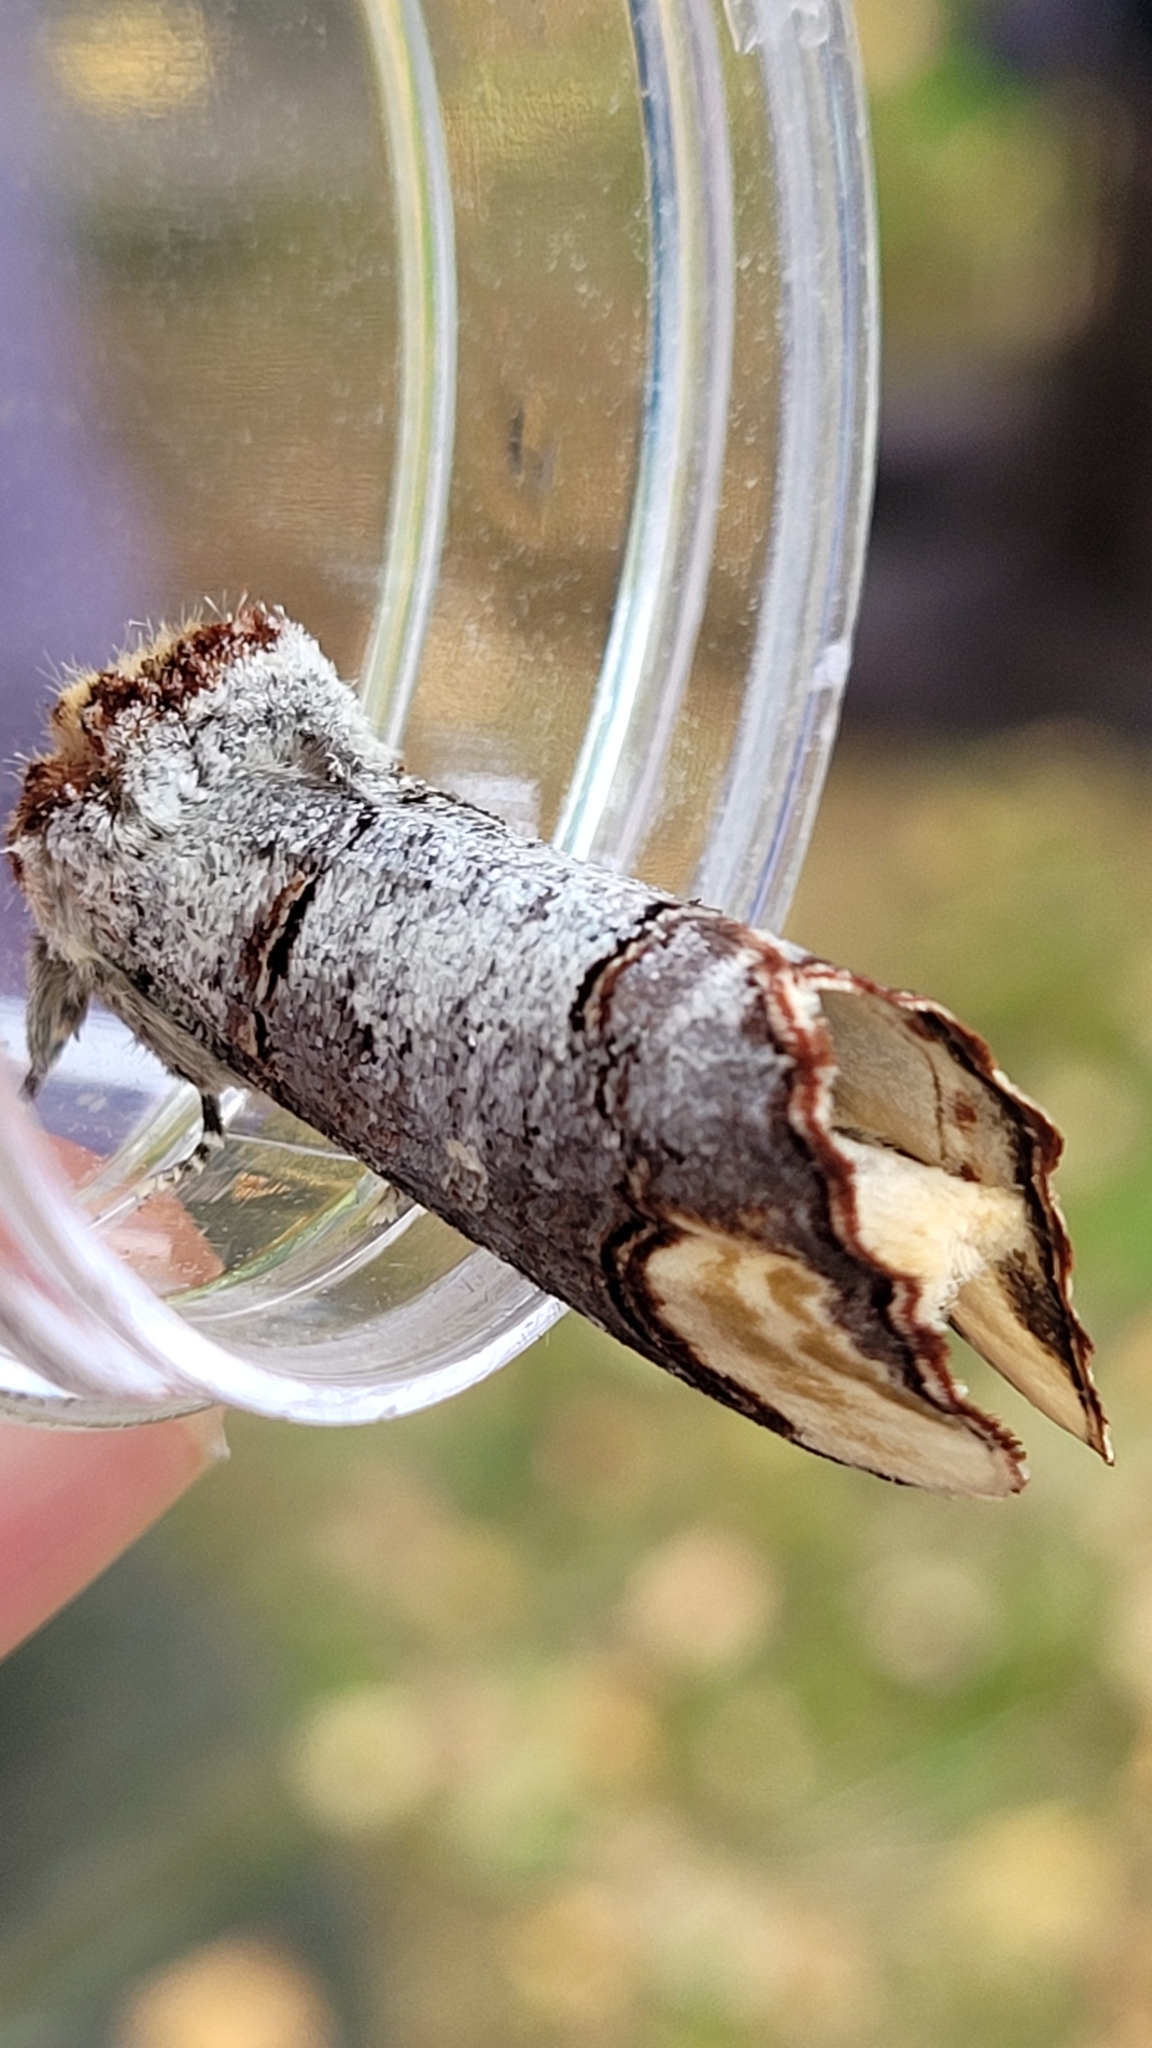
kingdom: Animalia
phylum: Arthropoda
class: Insecta
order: Lepidoptera
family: Notodontidae
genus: Phalera
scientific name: Phalera bucephala
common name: Buff-tip
